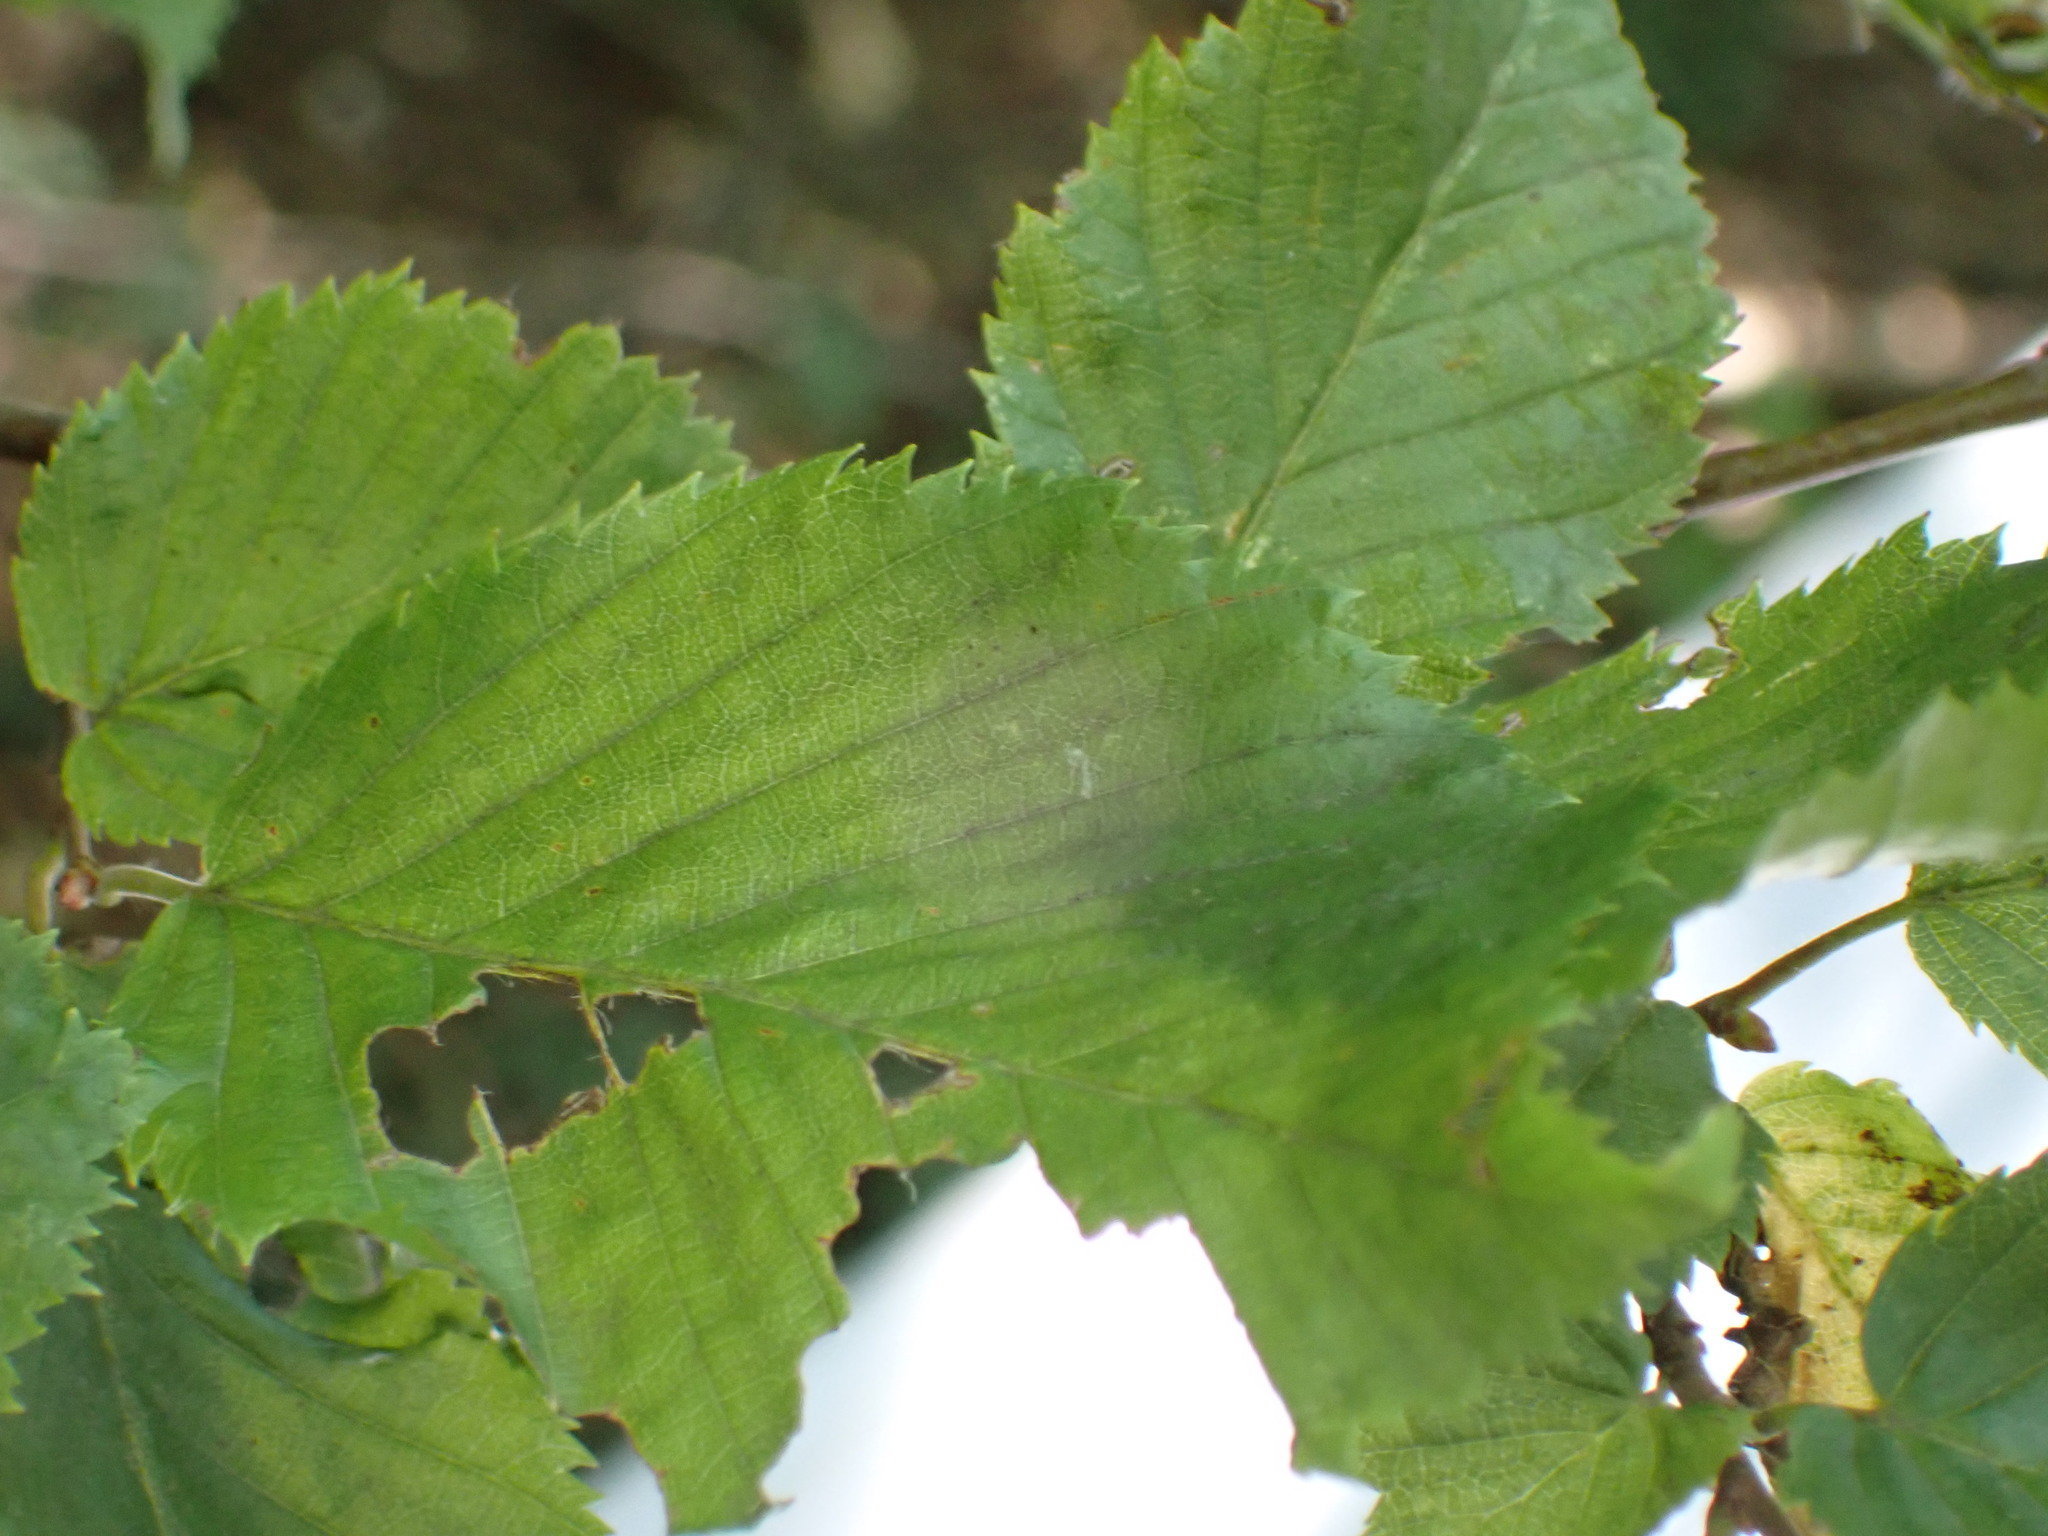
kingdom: Plantae
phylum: Tracheophyta
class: Magnoliopsida
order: Fagales
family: Betulaceae
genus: Carpinus
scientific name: Carpinus betulus
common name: Hornbeam
